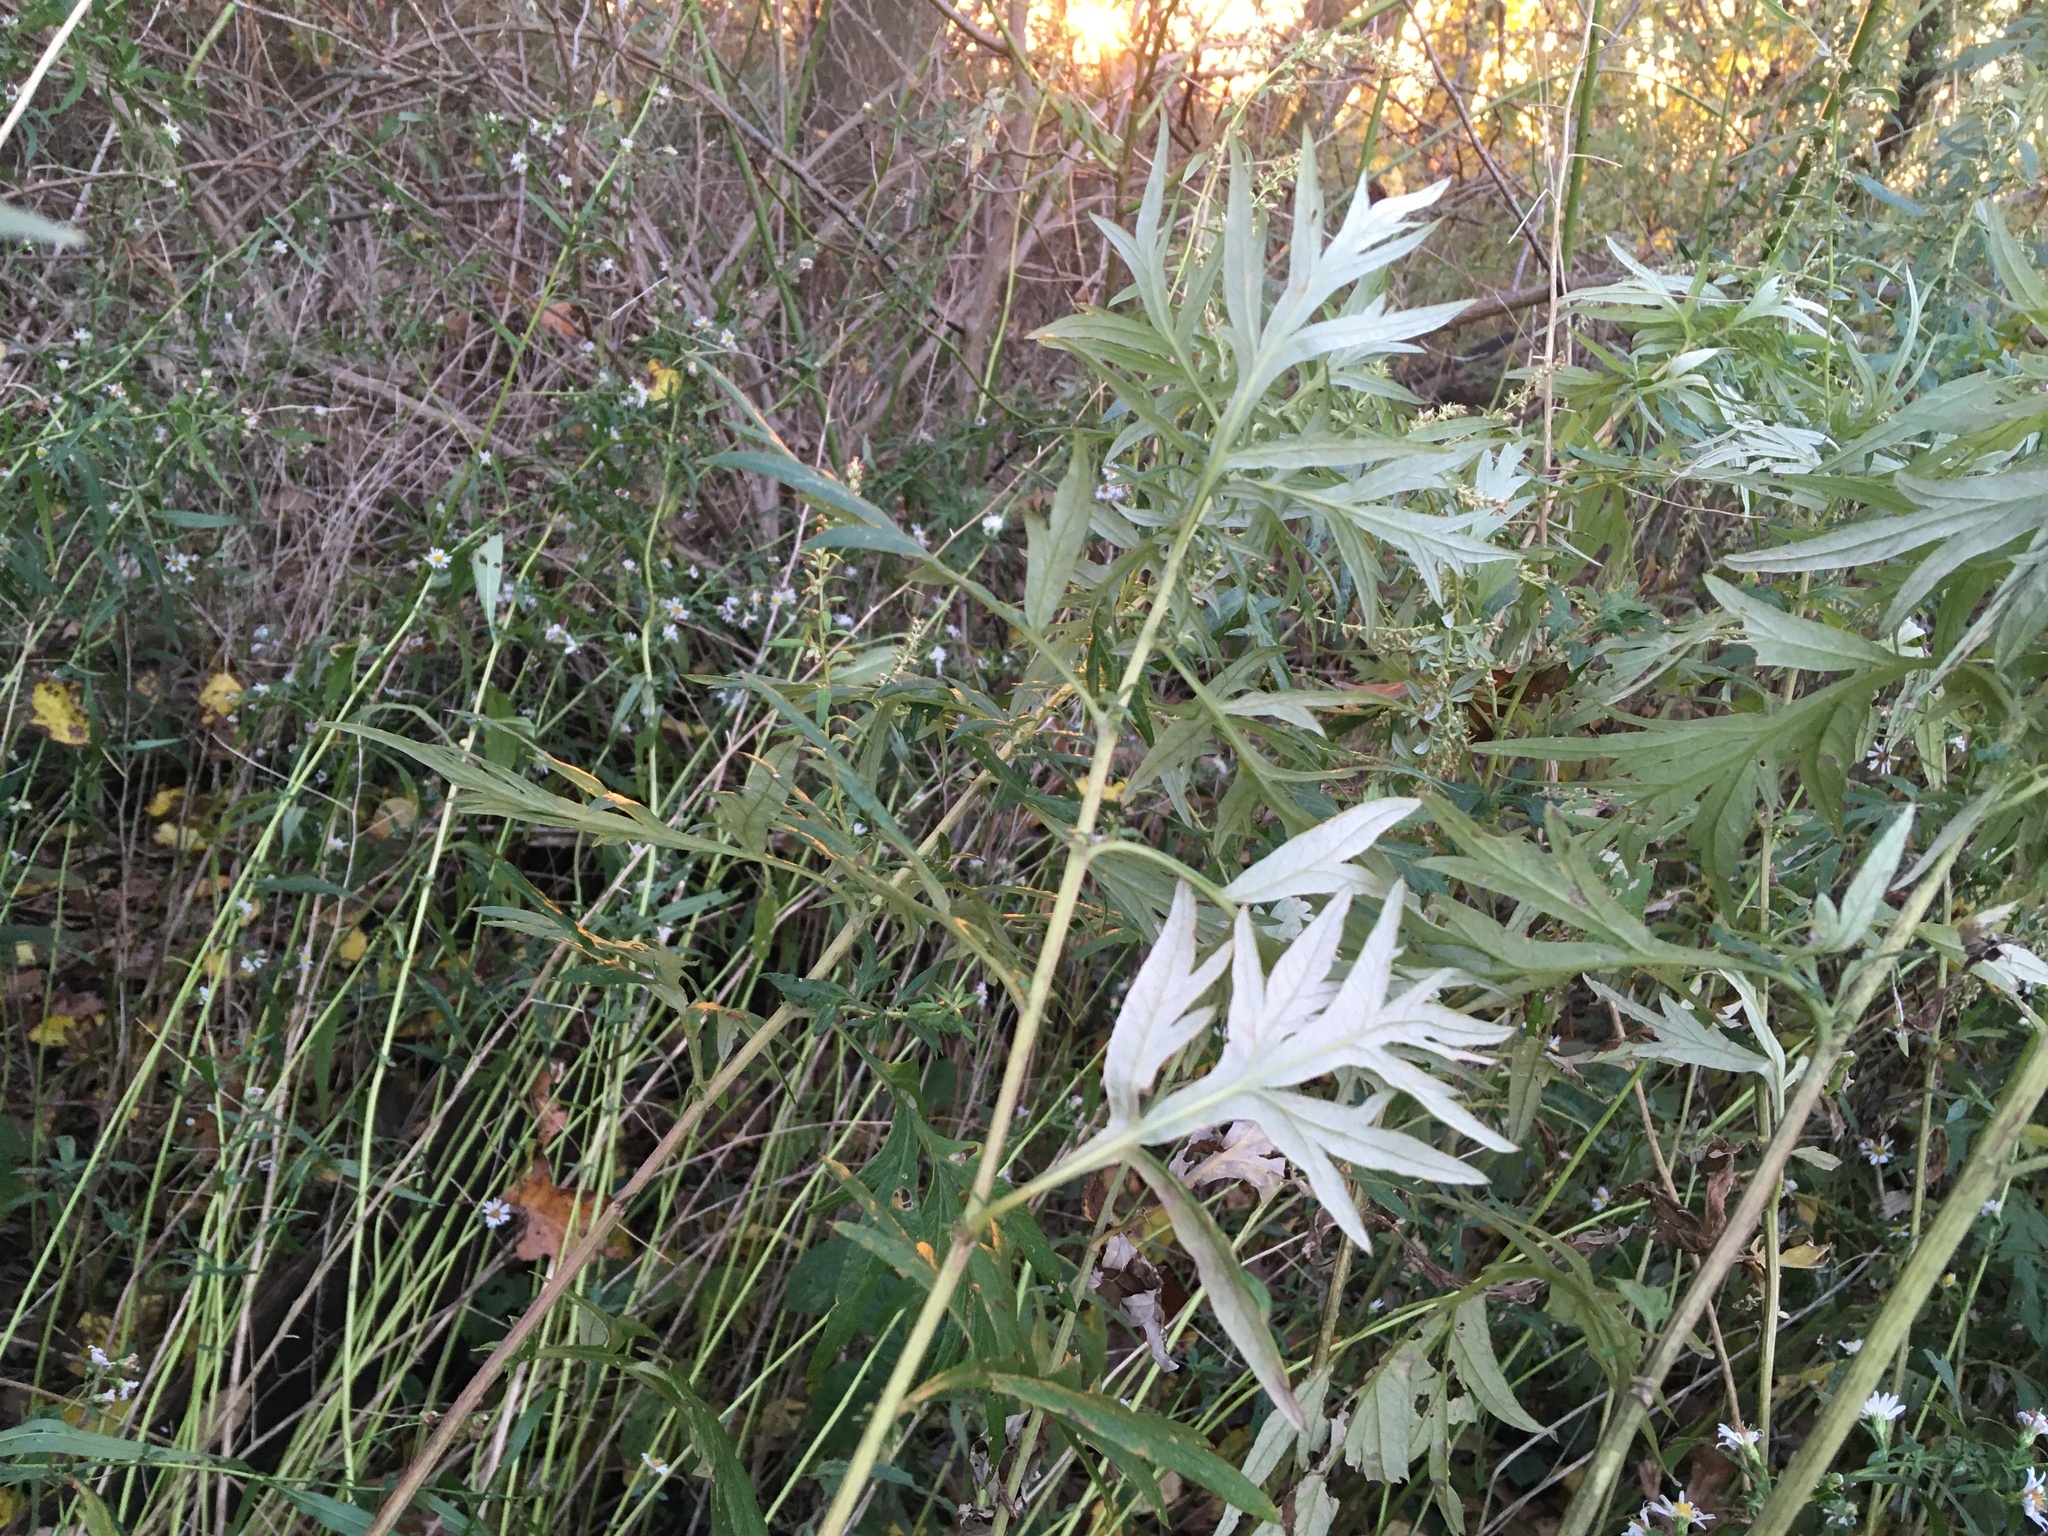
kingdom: Plantae
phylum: Tracheophyta
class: Magnoliopsida
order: Asterales
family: Asteraceae
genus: Artemisia
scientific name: Artemisia vulgaris
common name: Mugwort
